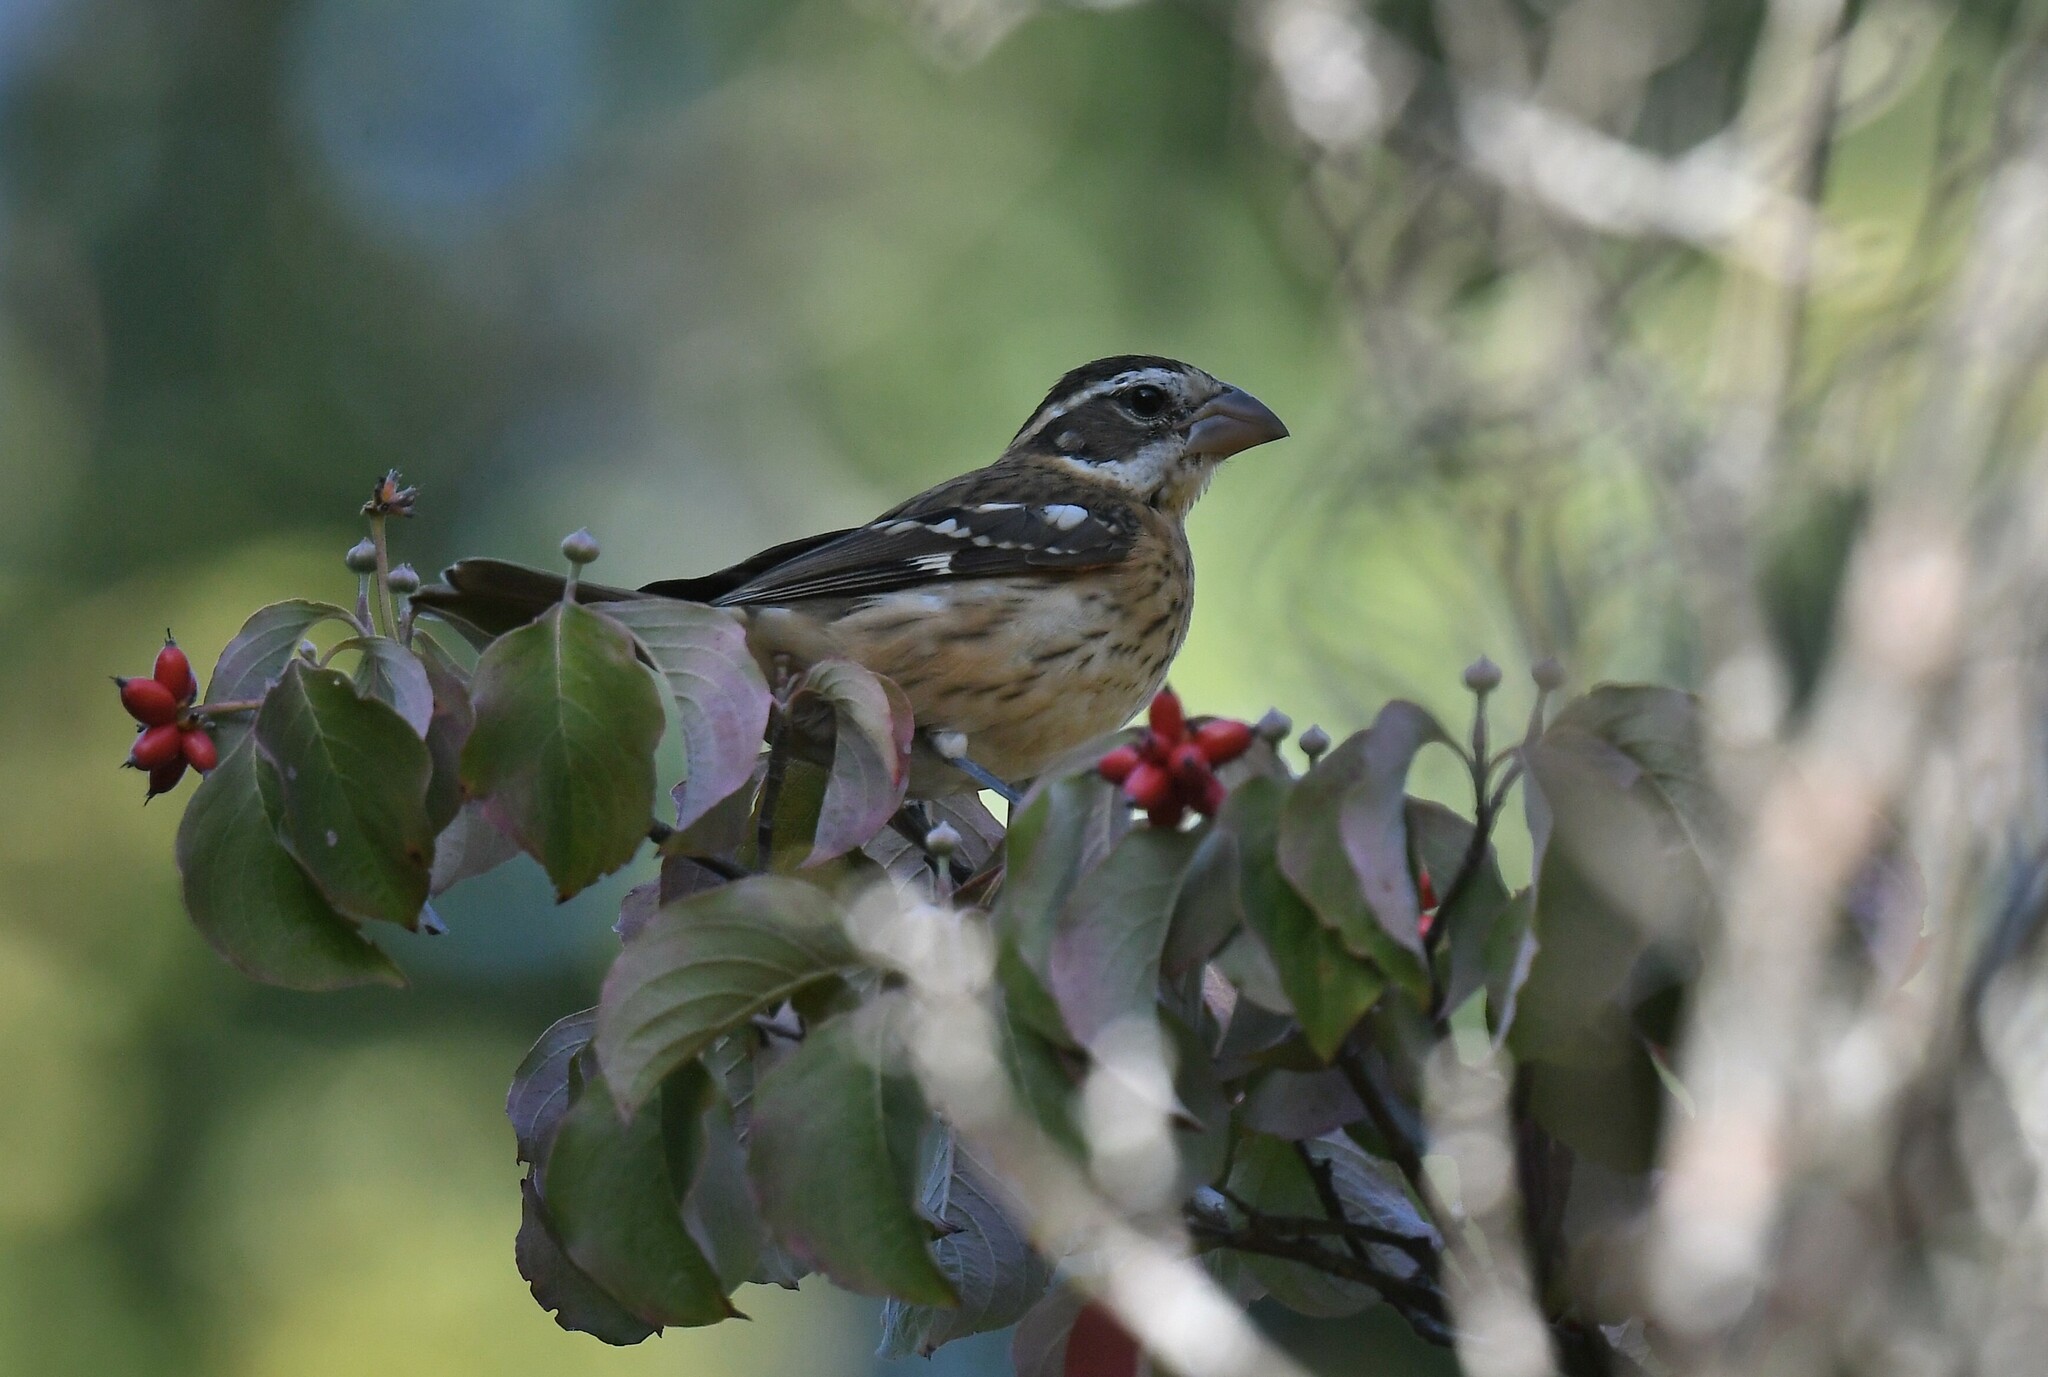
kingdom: Animalia
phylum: Chordata
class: Aves
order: Passeriformes
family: Cardinalidae
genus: Pheucticus
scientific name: Pheucticus ludovicianus
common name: Rose-breasted grosbeak
